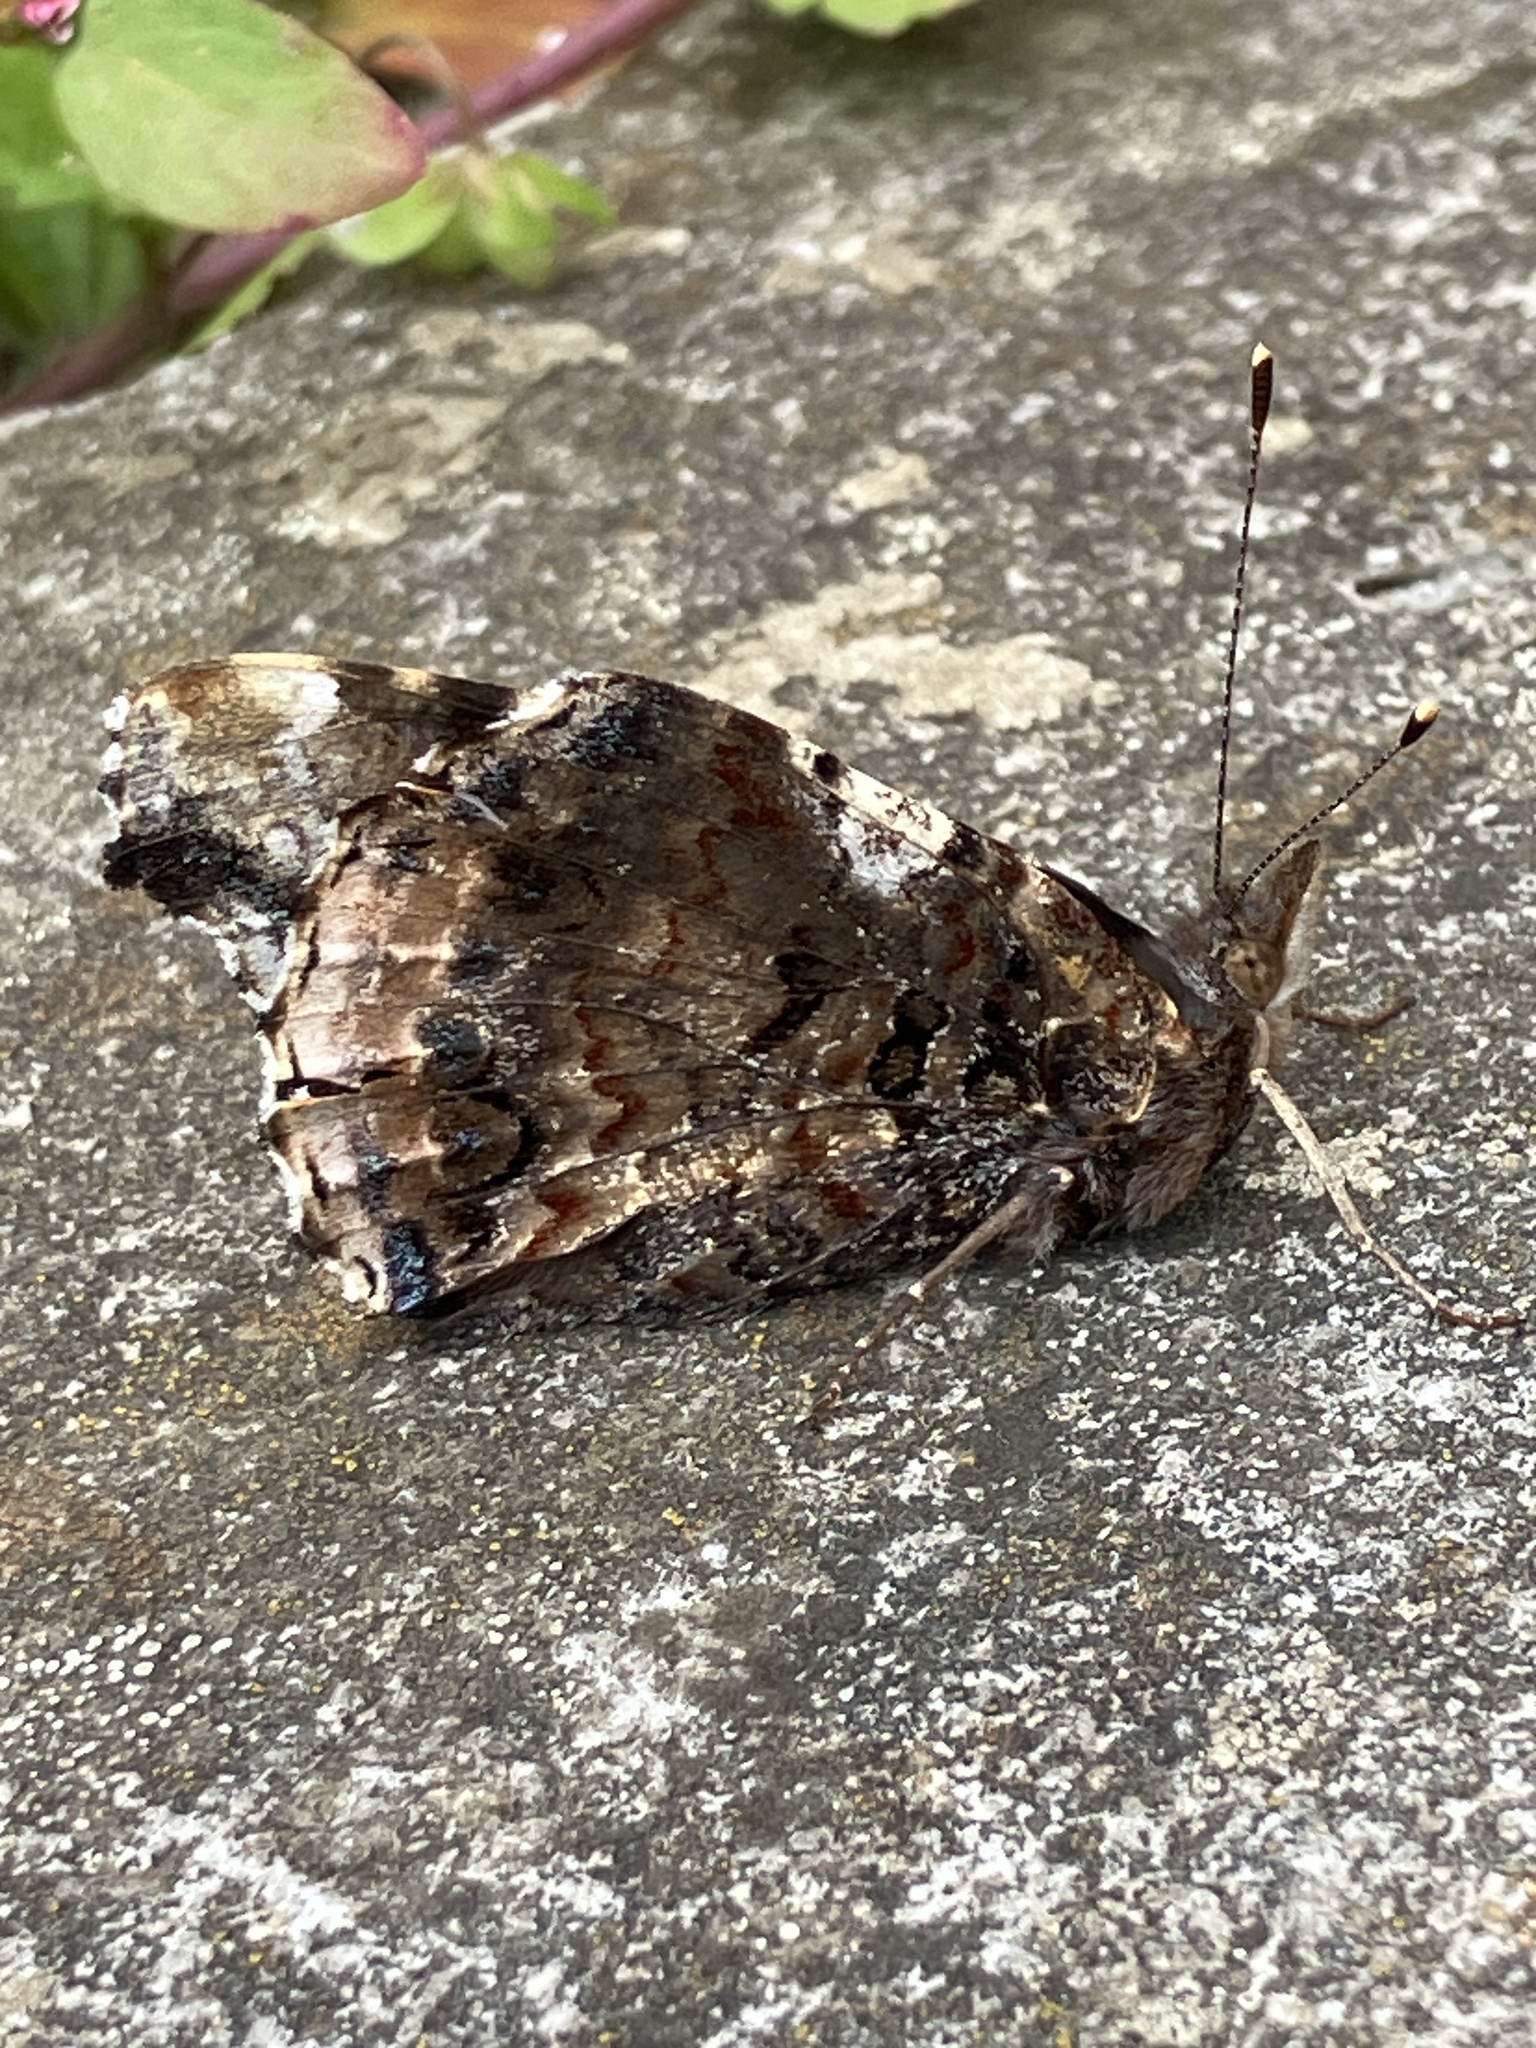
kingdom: Animalia
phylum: Arthropoda
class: Insecta
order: Lepidoptera
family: Nymphalidae
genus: Vanessa
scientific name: Vanessa atalanta
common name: Red admiral
